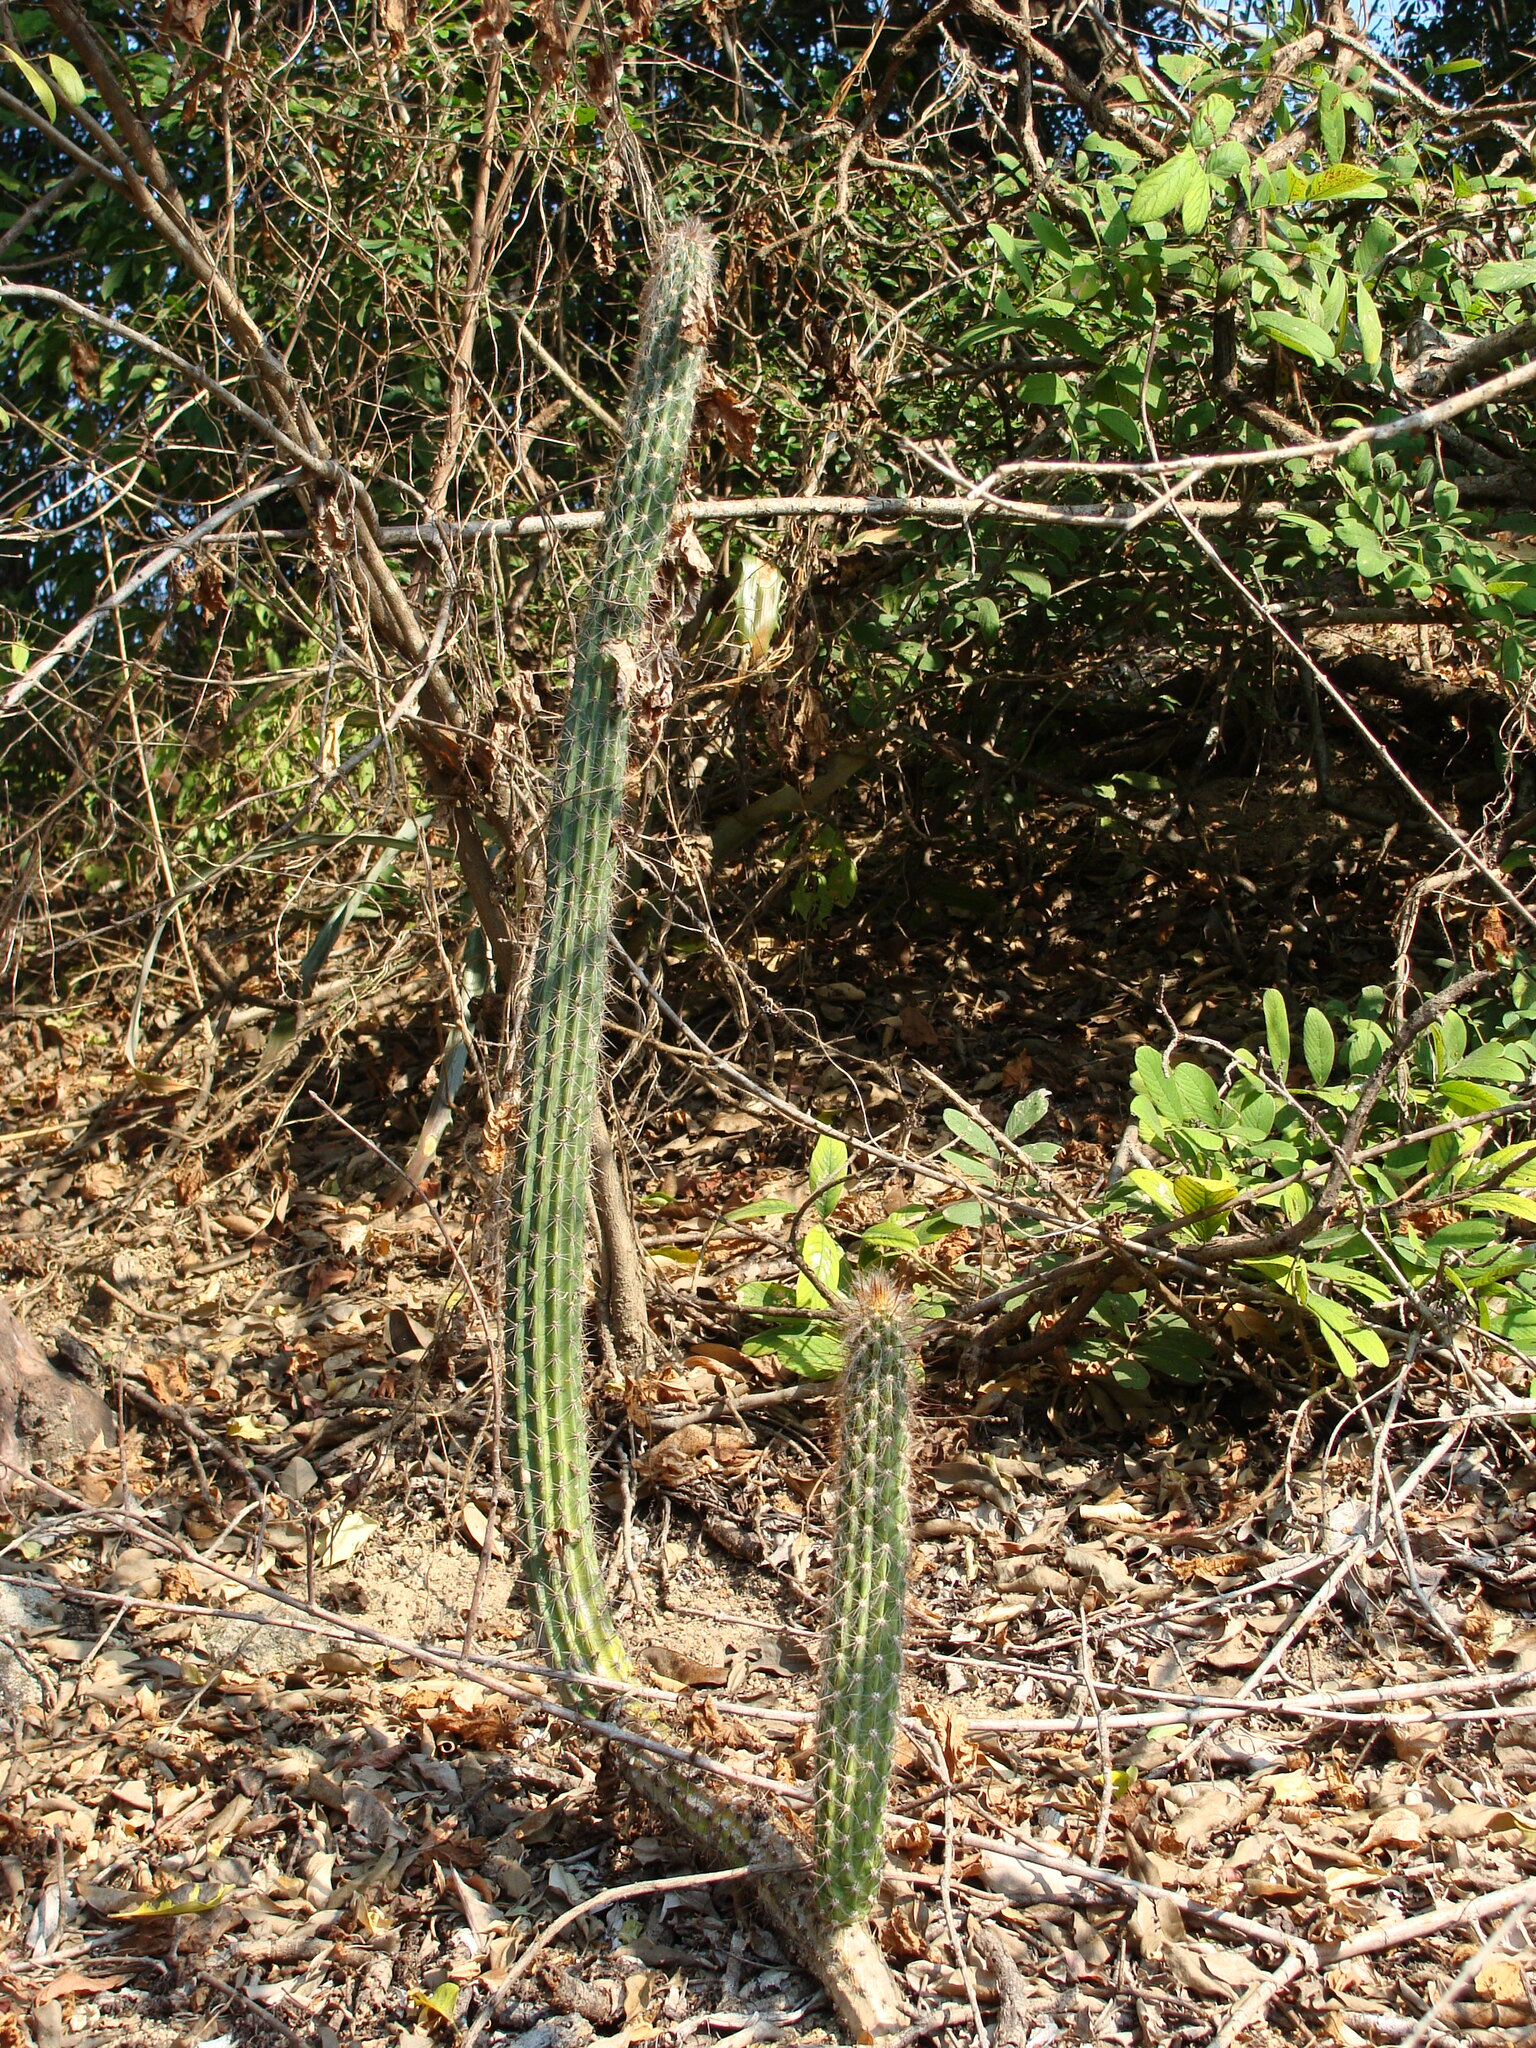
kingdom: Plantae
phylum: Tracheophyta
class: Magnoliopsida
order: Caryophyllales
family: Cactaceae
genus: Peniocereus
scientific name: Peniocereus serpentinus
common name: Serpent cactus
